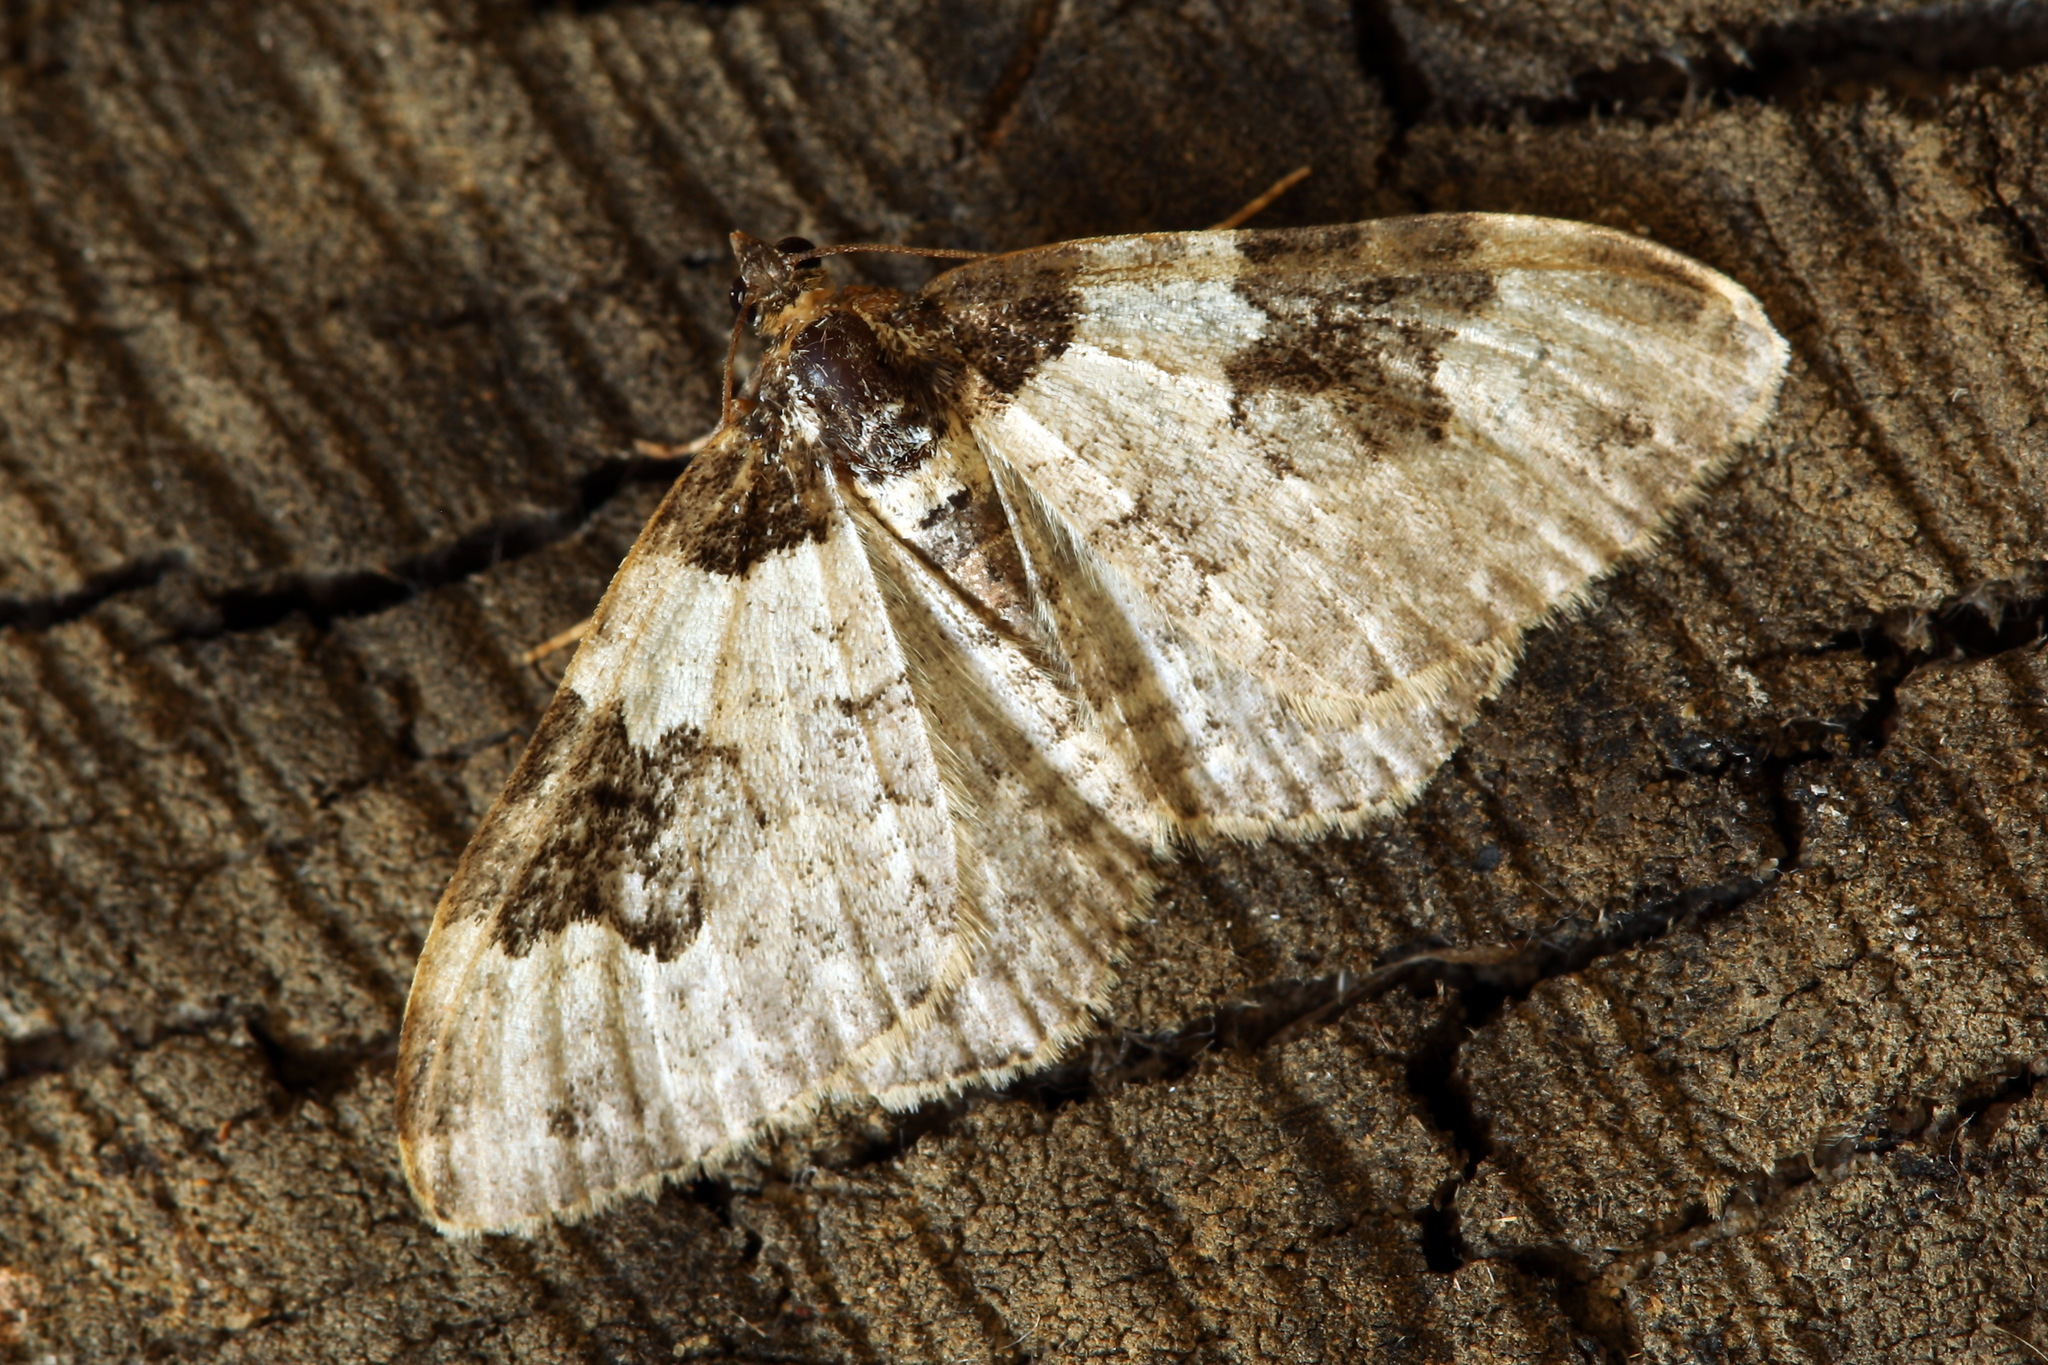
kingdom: Animalia
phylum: Arthropoda
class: Insecta
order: Lepidoptera
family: Geometridae
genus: Xanthorhoe
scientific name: Xanthorhoe fluctuata
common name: Garden carpet
